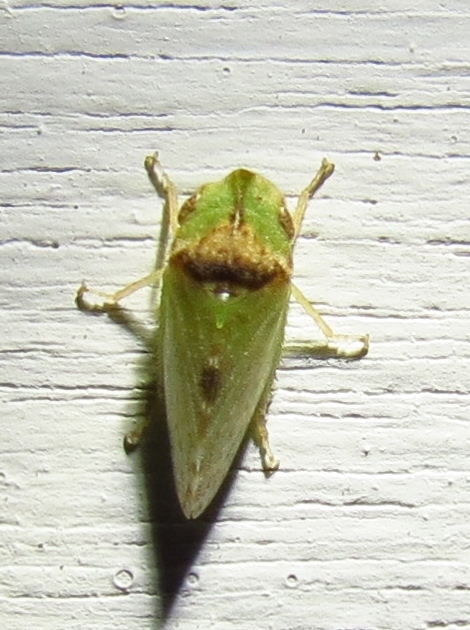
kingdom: Animalia
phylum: Arthropoda
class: Insecta
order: Hemiptera
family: Cicadellidae
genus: Xerophloea
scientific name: Xerophloea viridis
